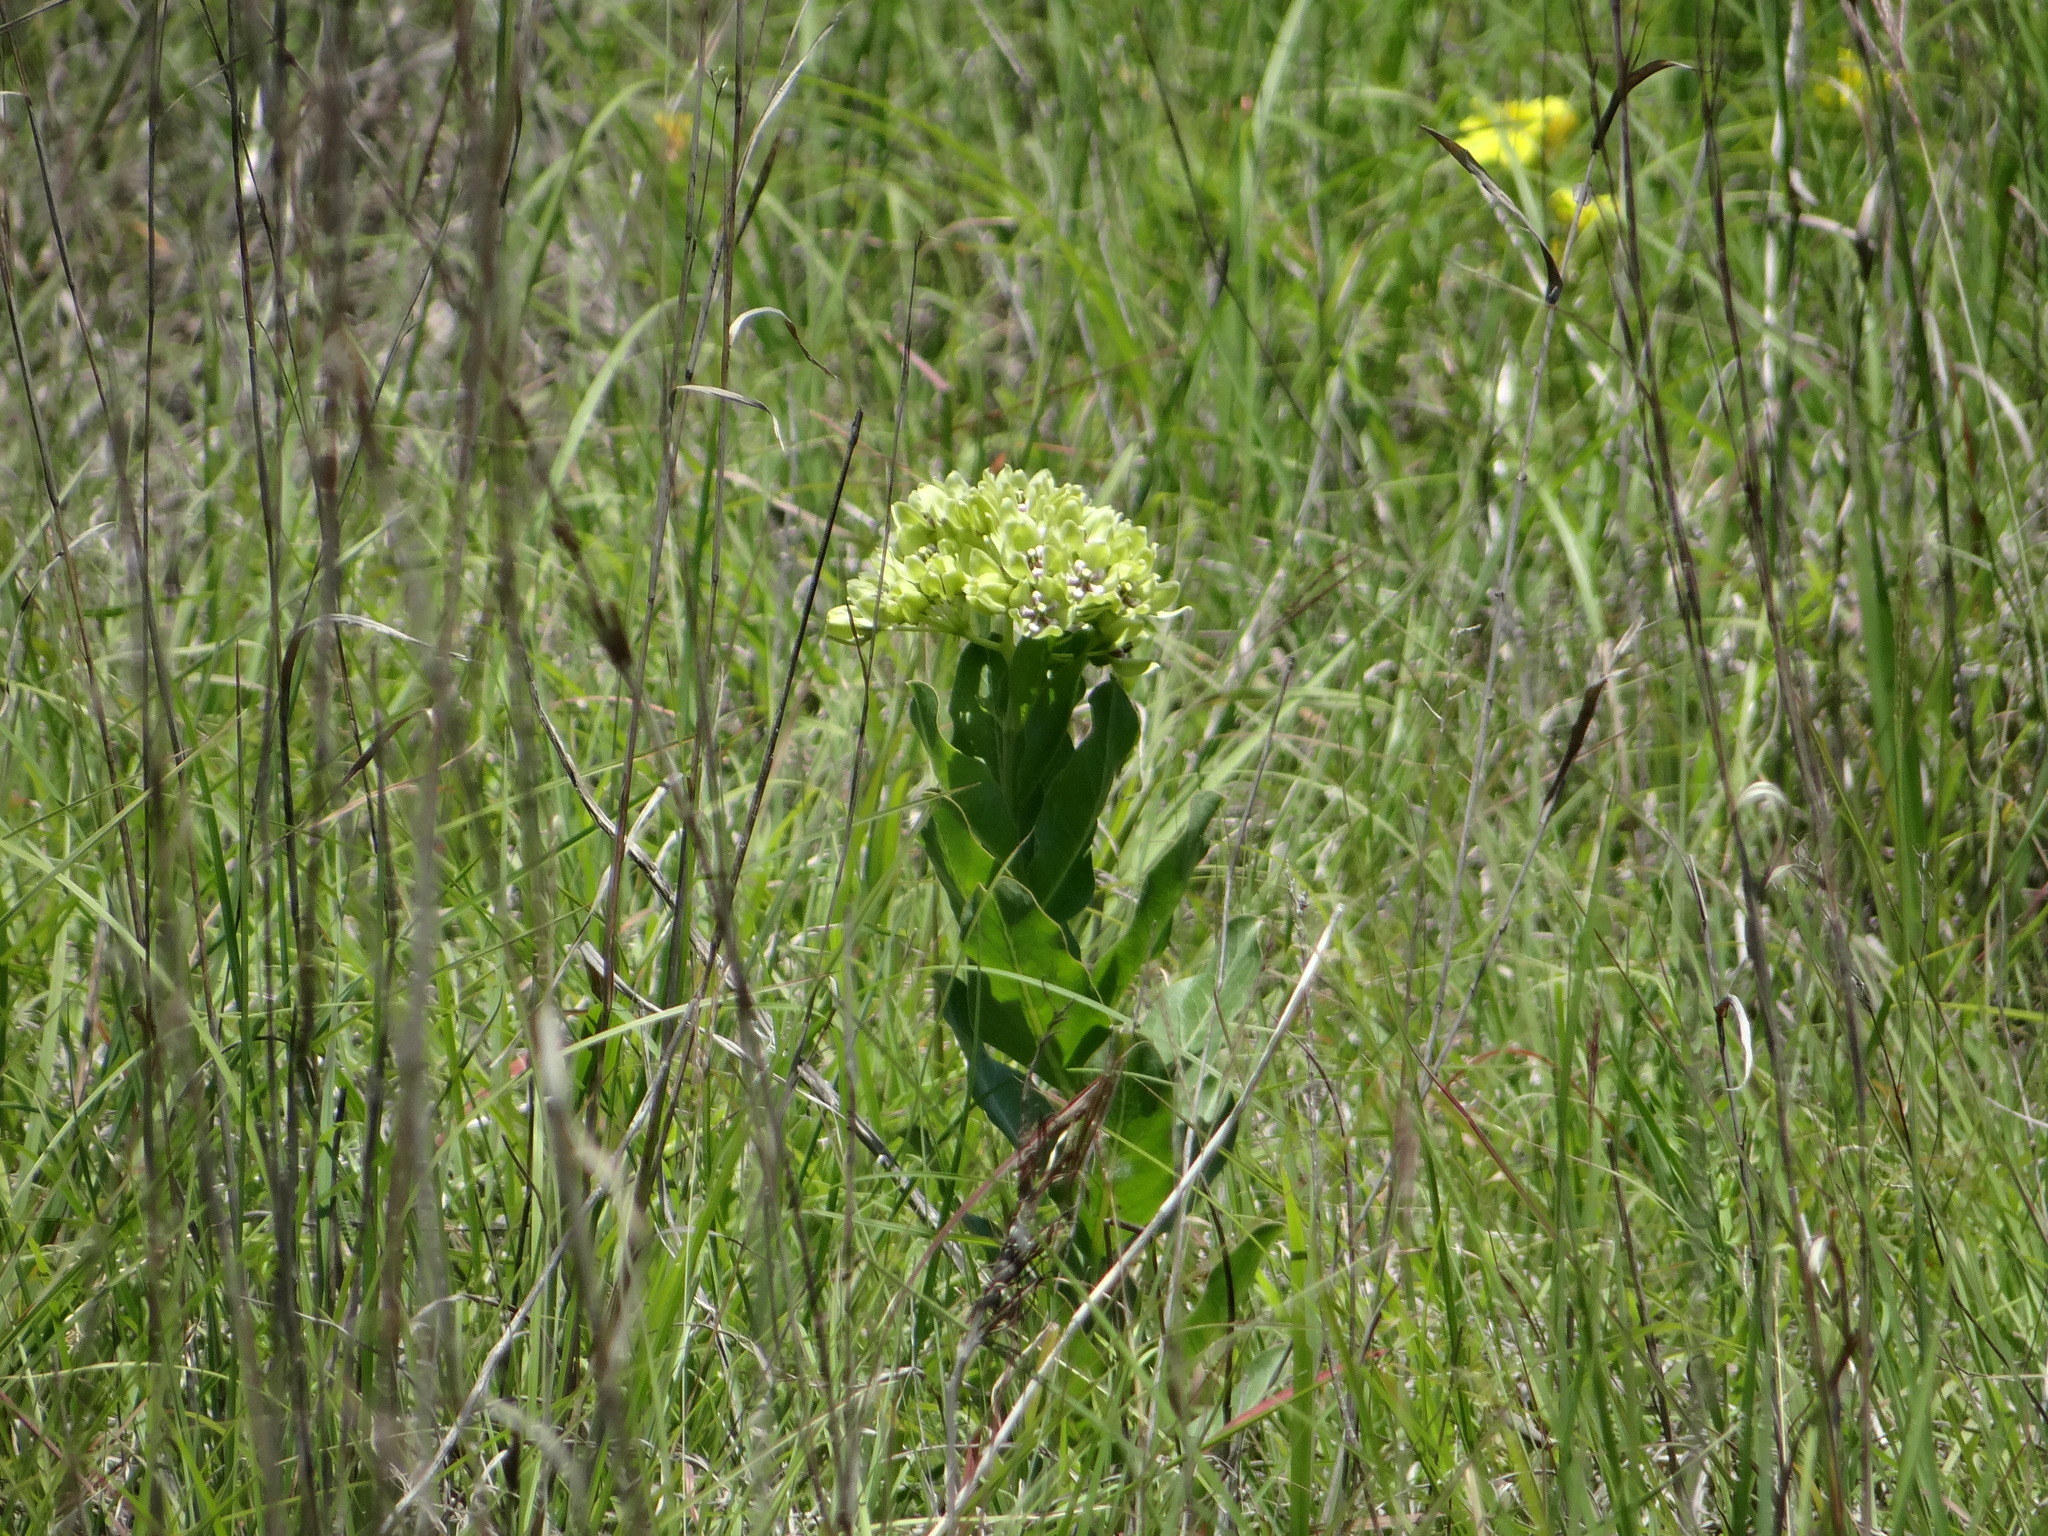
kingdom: Plantae
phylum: Tracheophyta
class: Magnoliopsida
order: Gentianales
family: Apocynaceae
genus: Asclepias
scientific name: Asclepias viridis
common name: Antelope-horns
